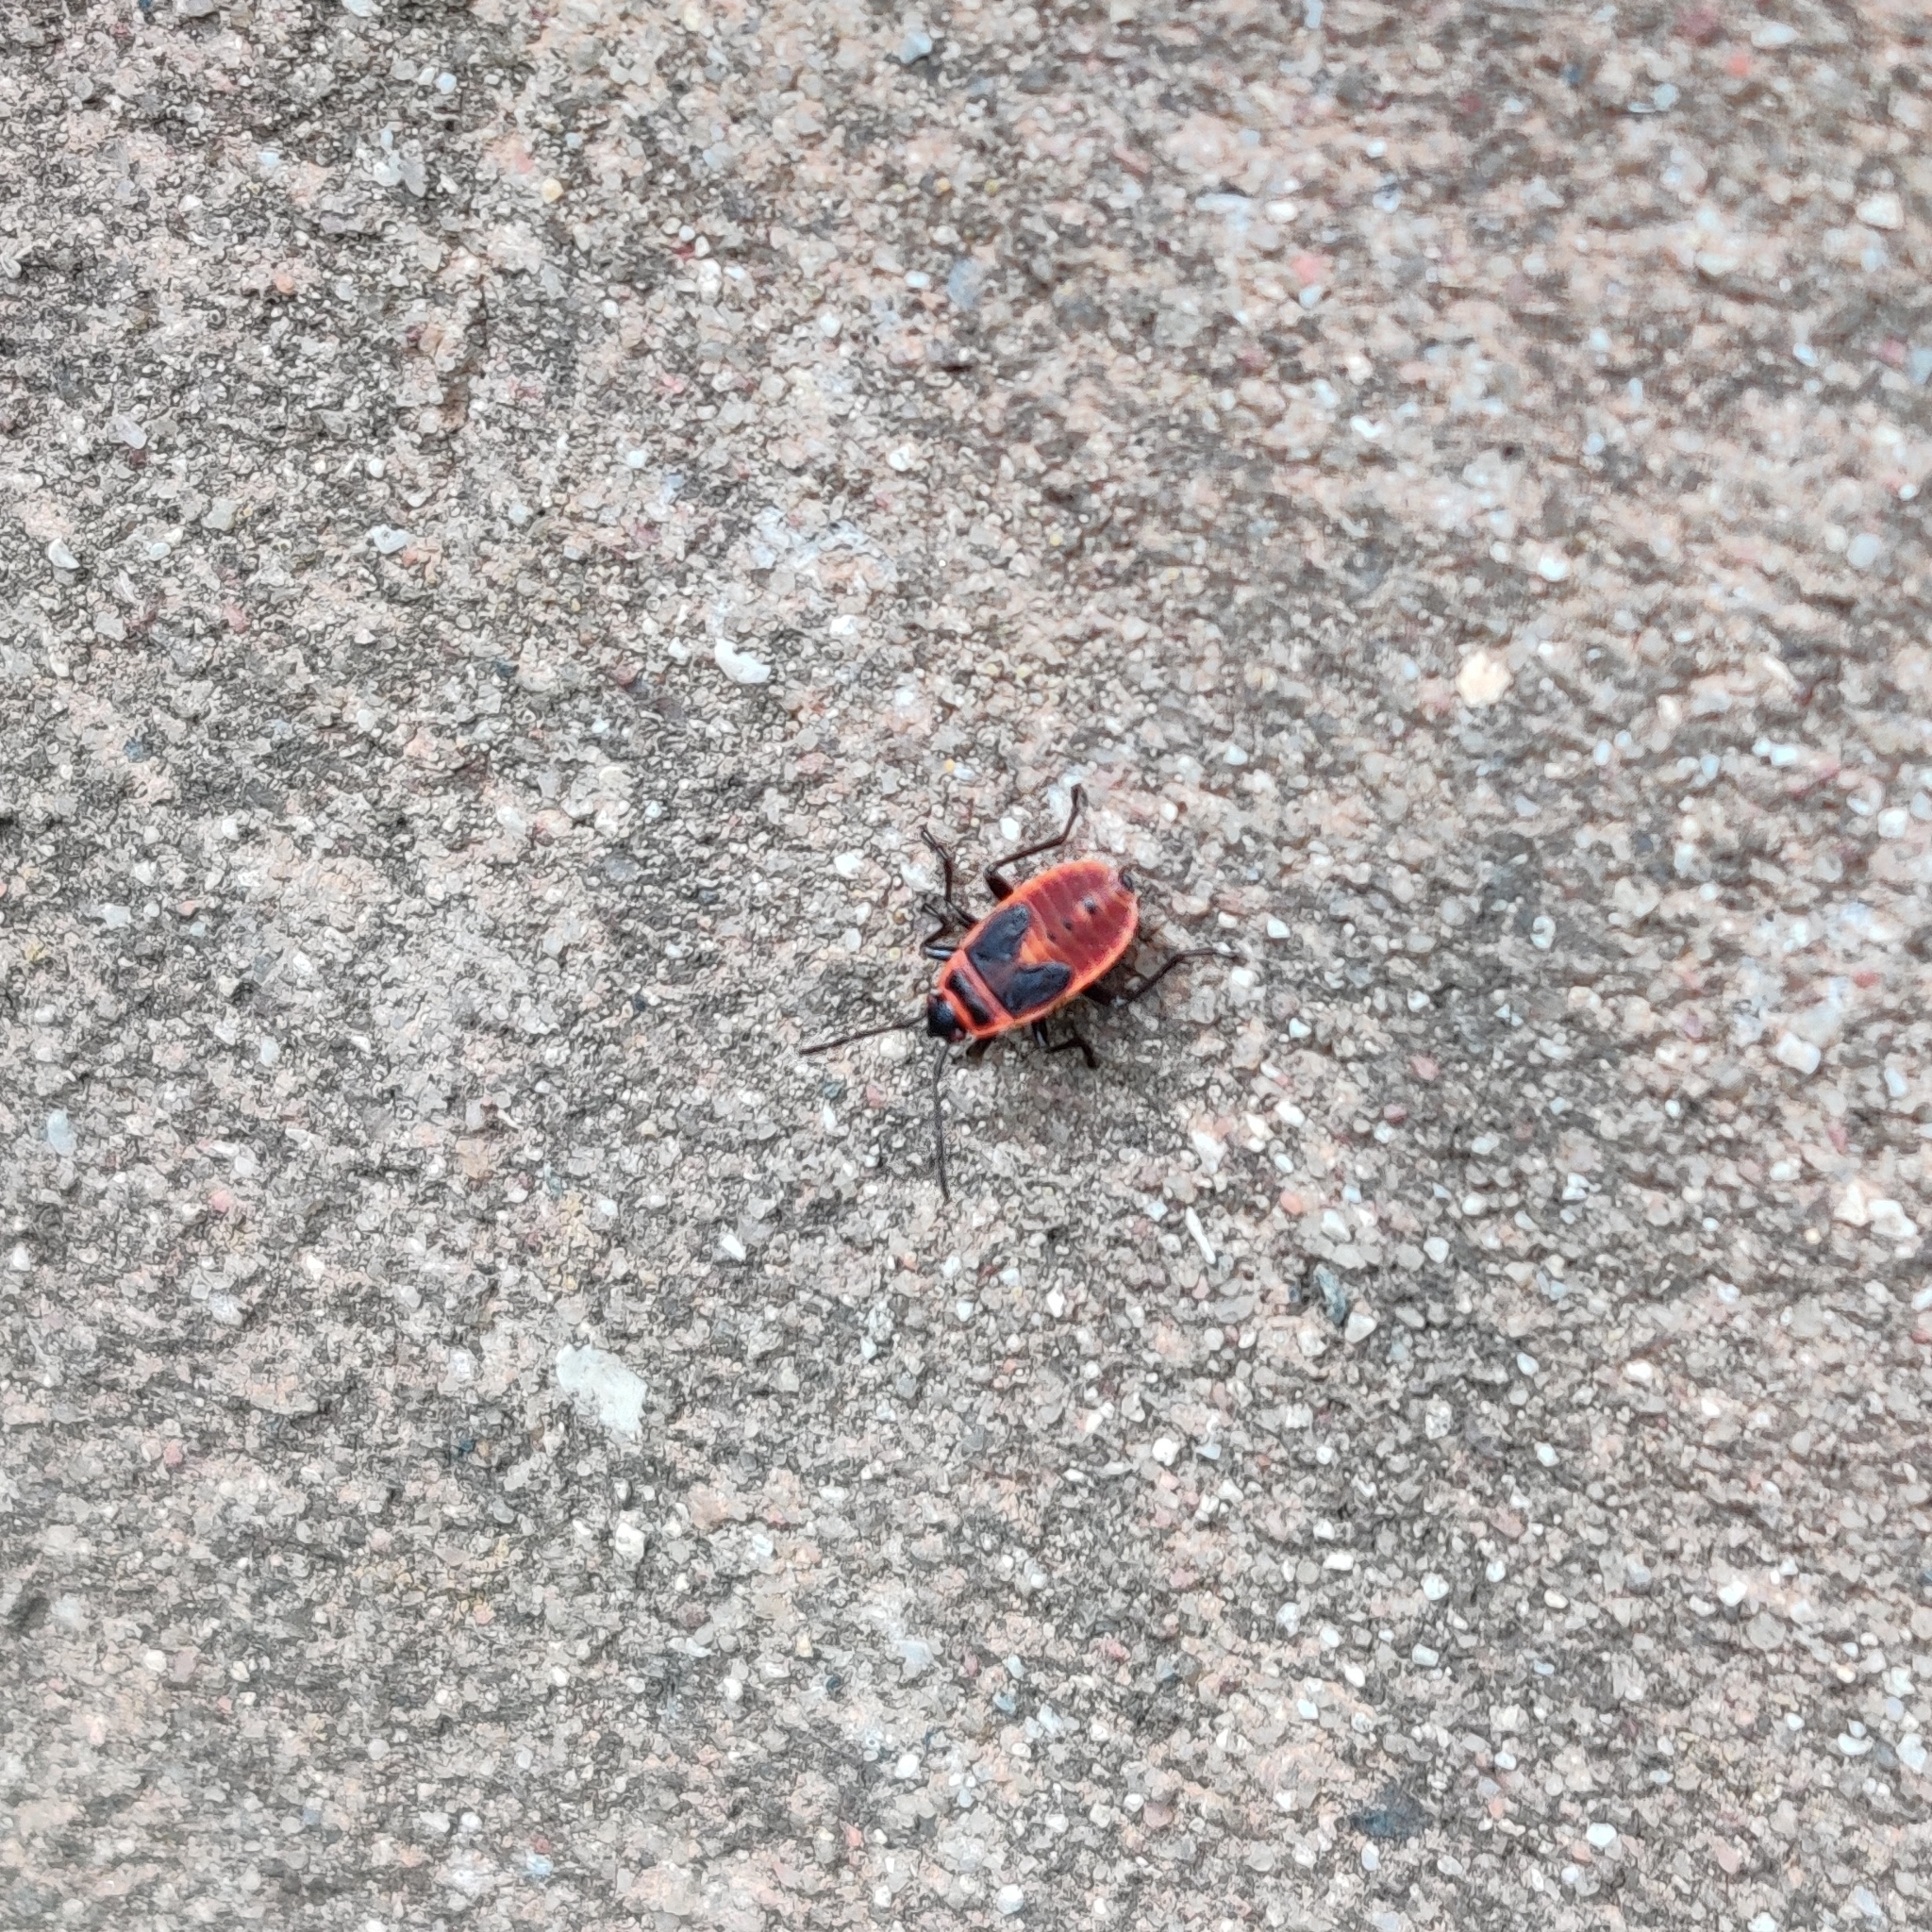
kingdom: Animalia
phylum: Arthropoda
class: Insecta
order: Hemiptera
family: Pyrrhocoridae
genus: Pyrrhocoris
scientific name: Pyrrhocoris apterus
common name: Firebug
